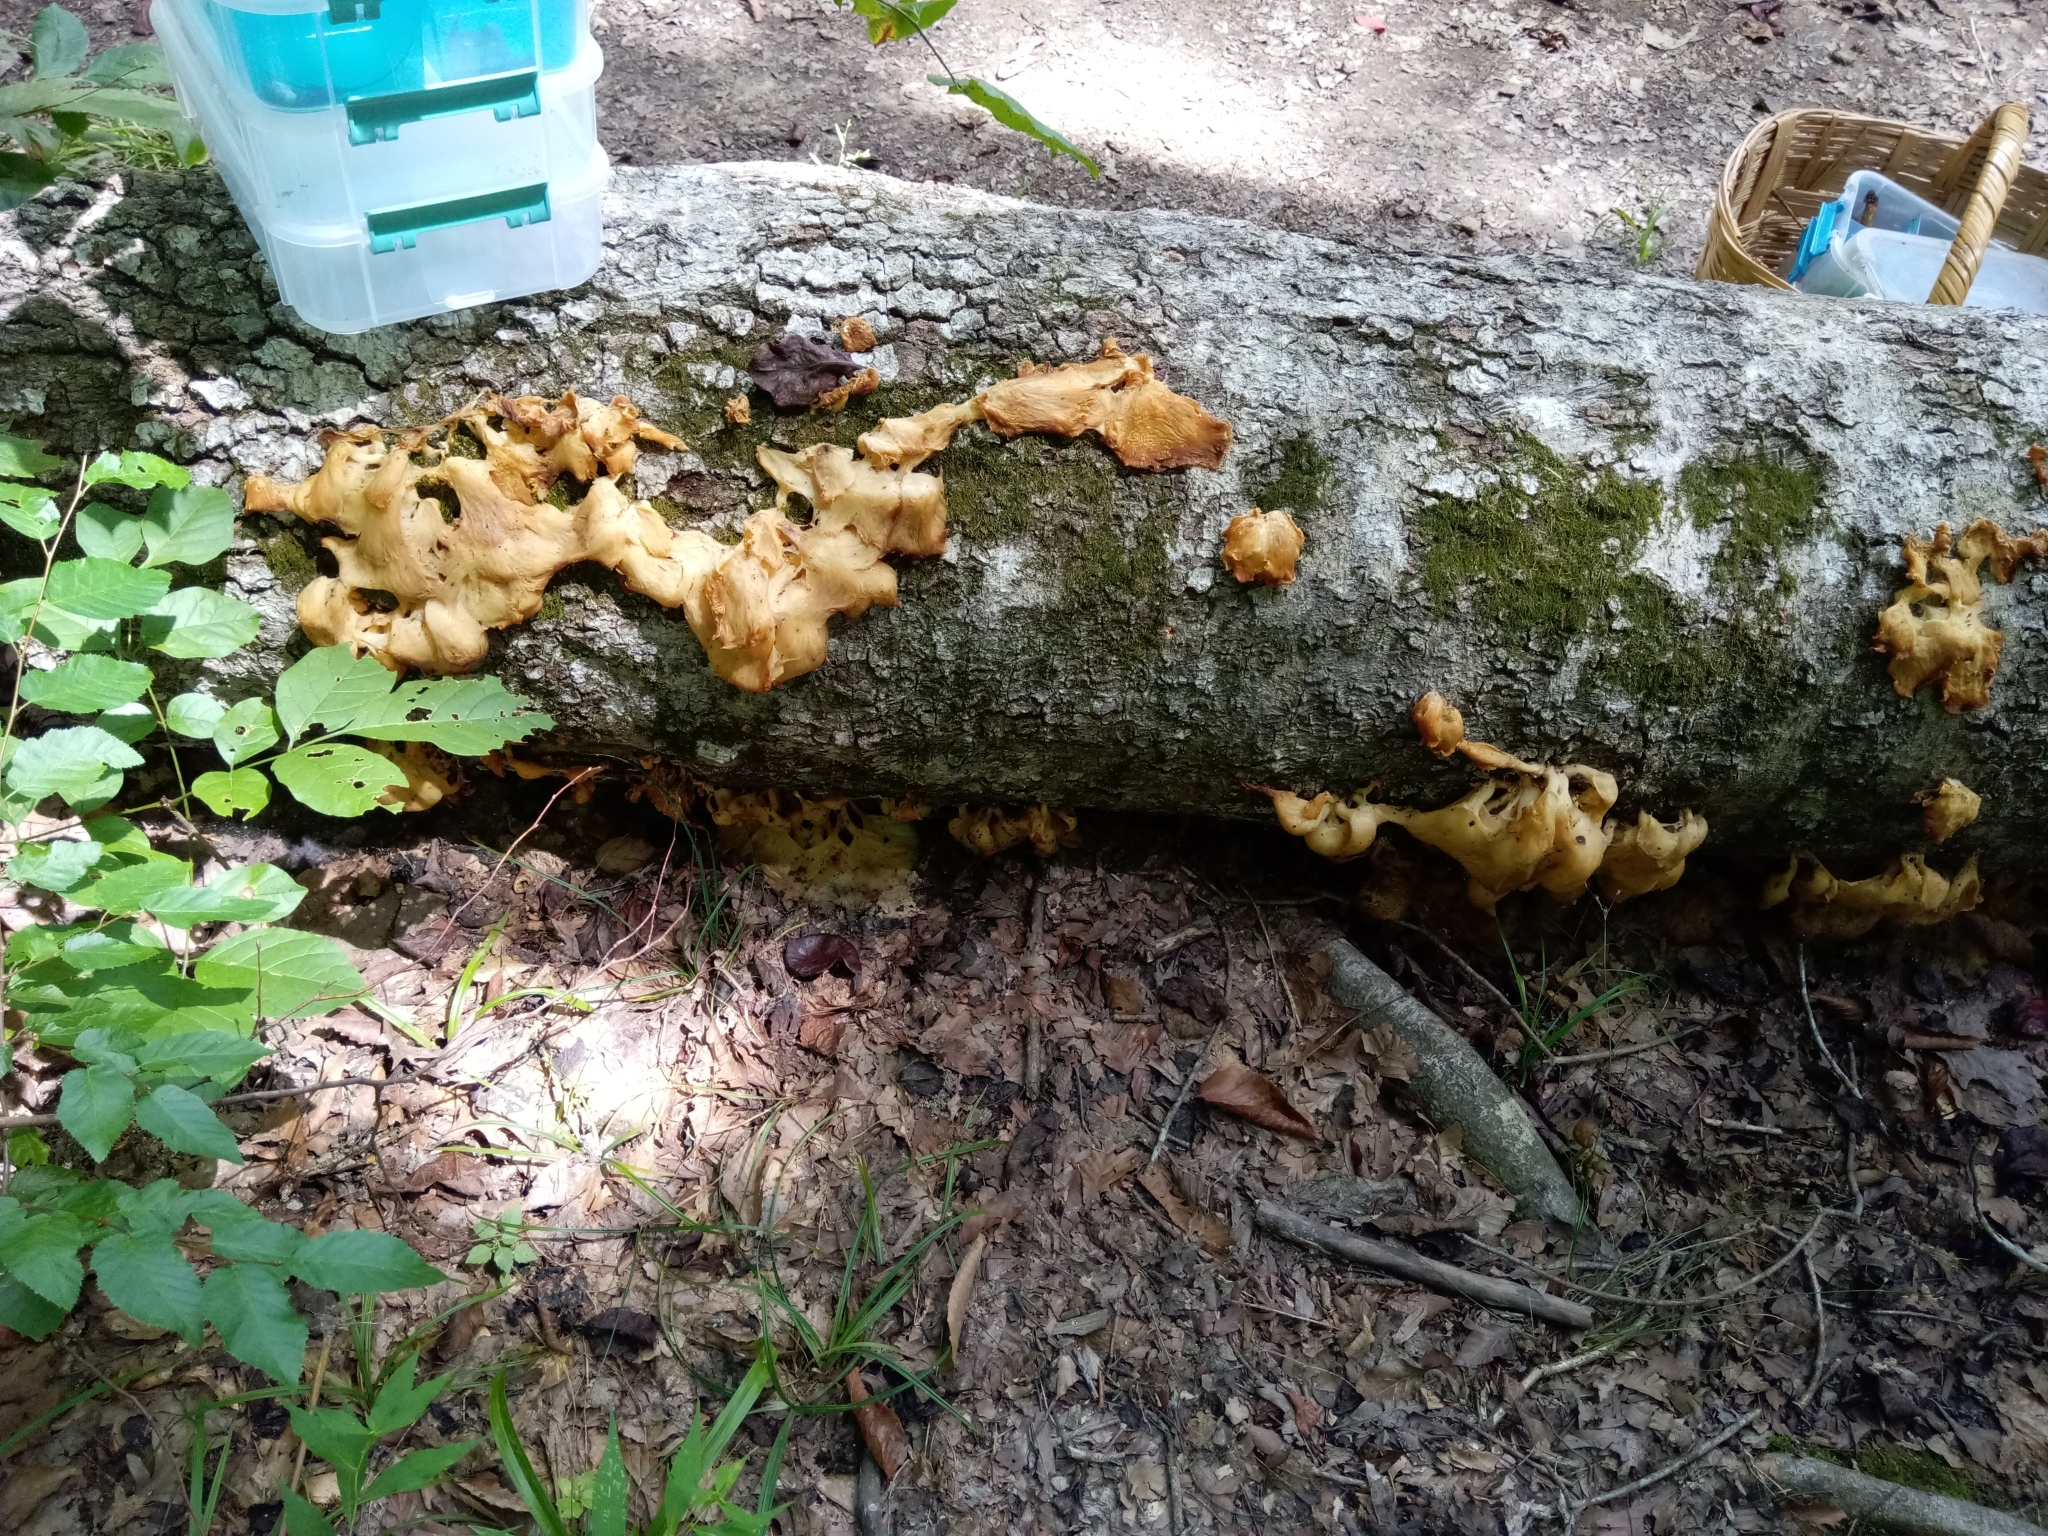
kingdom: Fungi
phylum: Basidiomycota
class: Agaricomycetes
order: Agaricales
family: Pleurotaceae
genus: Pleurotus
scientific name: Pleurotus pulmonarius
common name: Pale oyster
